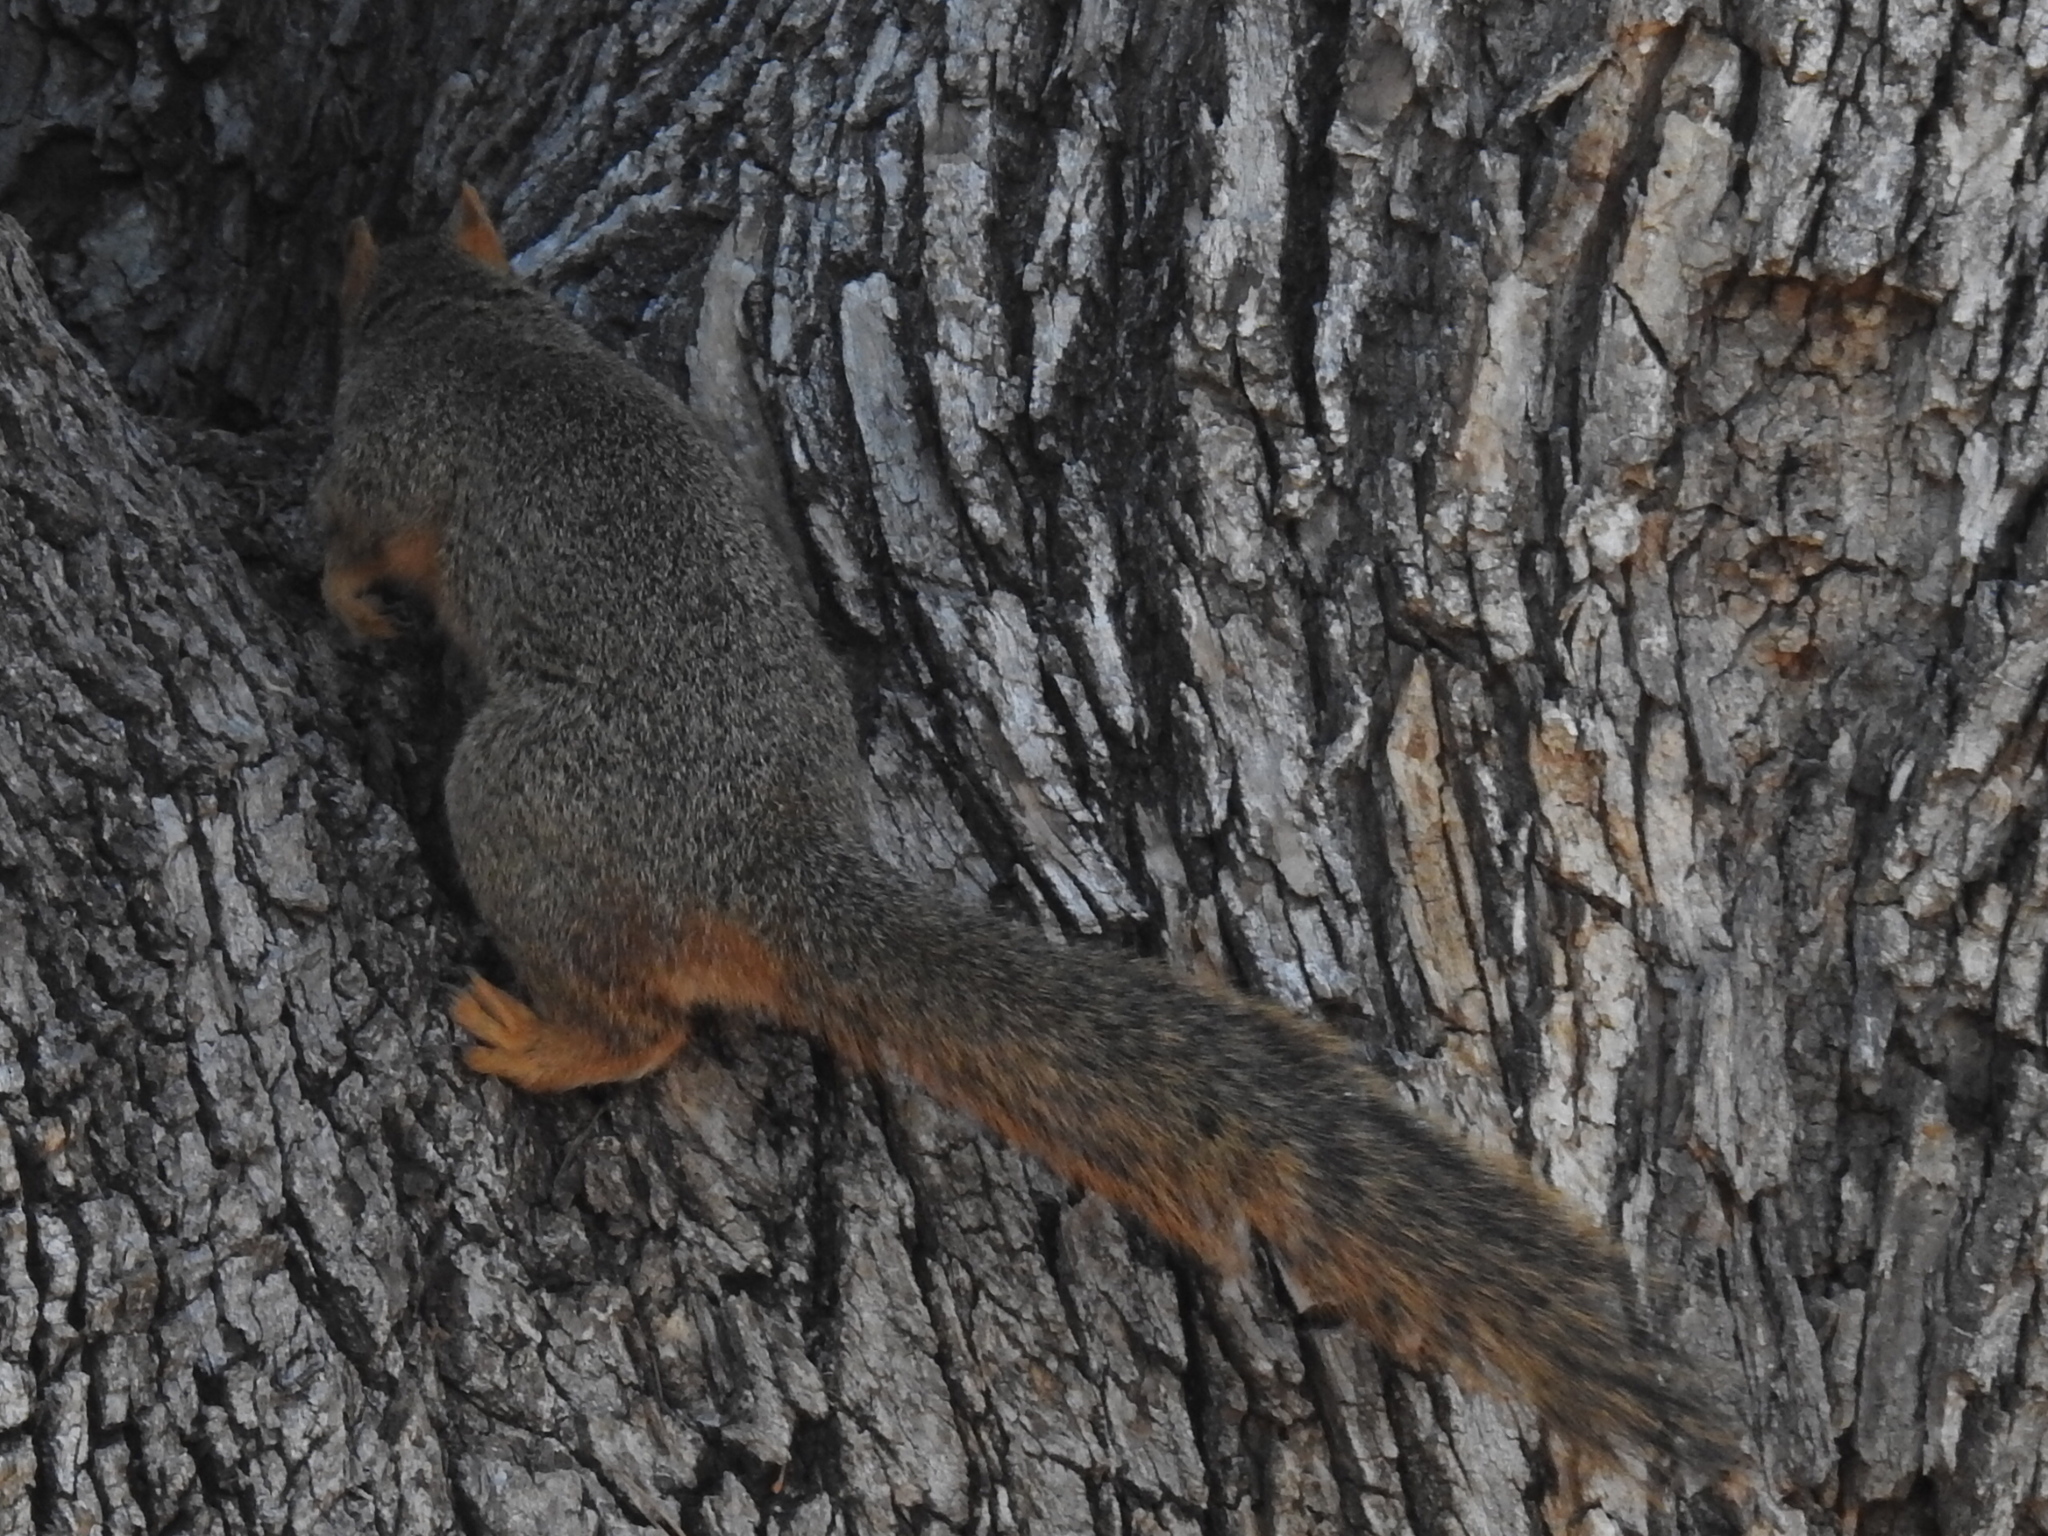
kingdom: Animalia
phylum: Chordata
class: Mammalia
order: Rodentia
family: Sciuridae
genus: Sciurus
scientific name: Sciurus niger
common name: Fox squirrel
